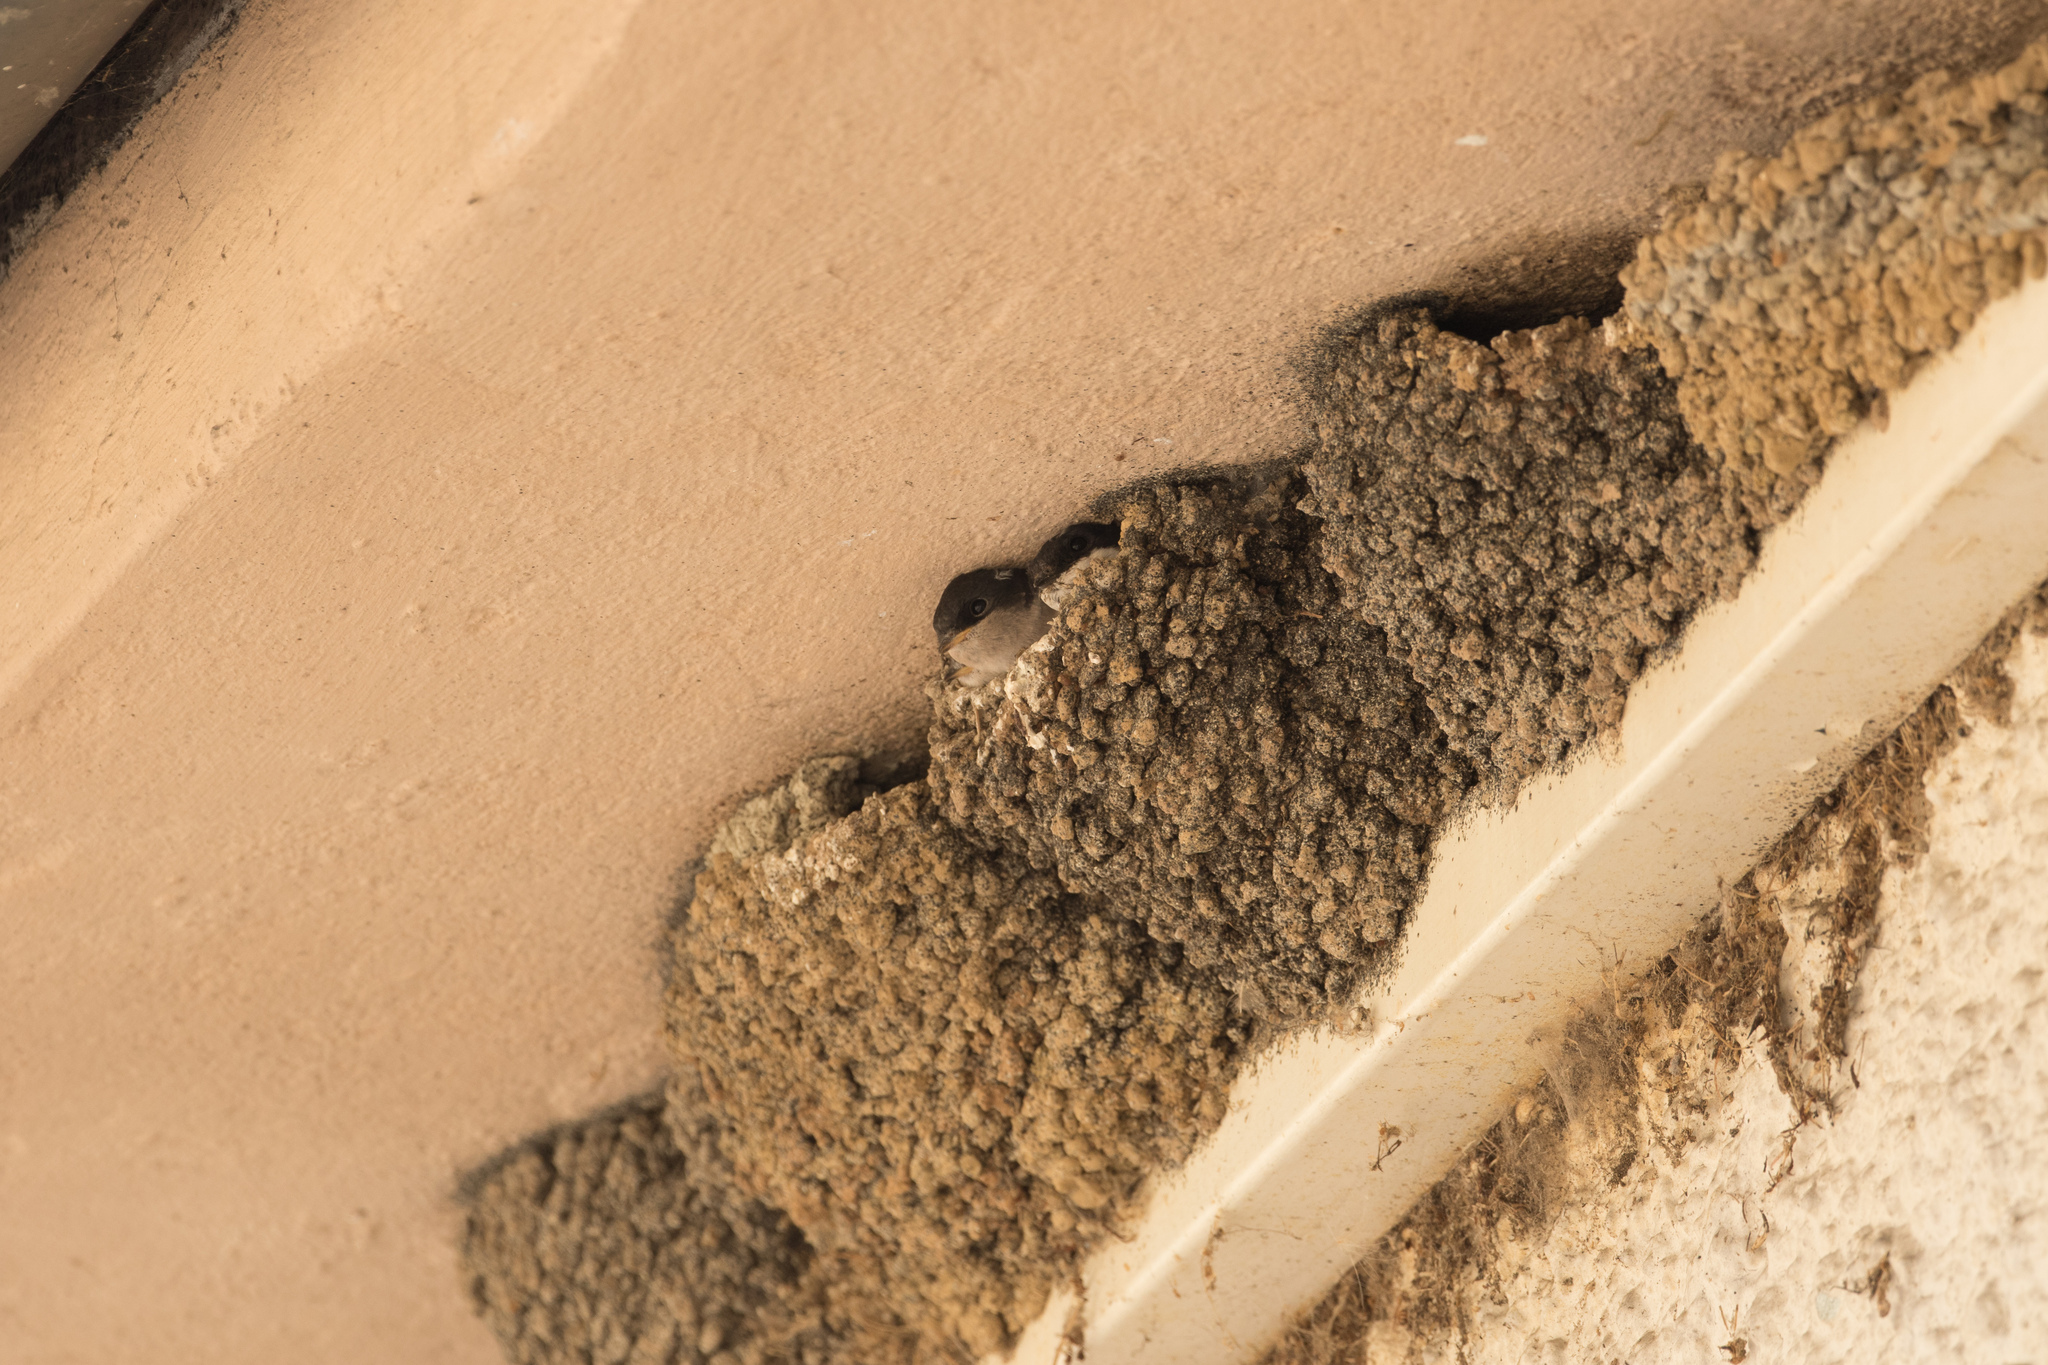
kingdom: Animalia
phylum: Chordata
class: Aves
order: Passeriformes
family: Hirundinidae
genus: Delichon
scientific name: Delichon urbicum
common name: Common house martin
